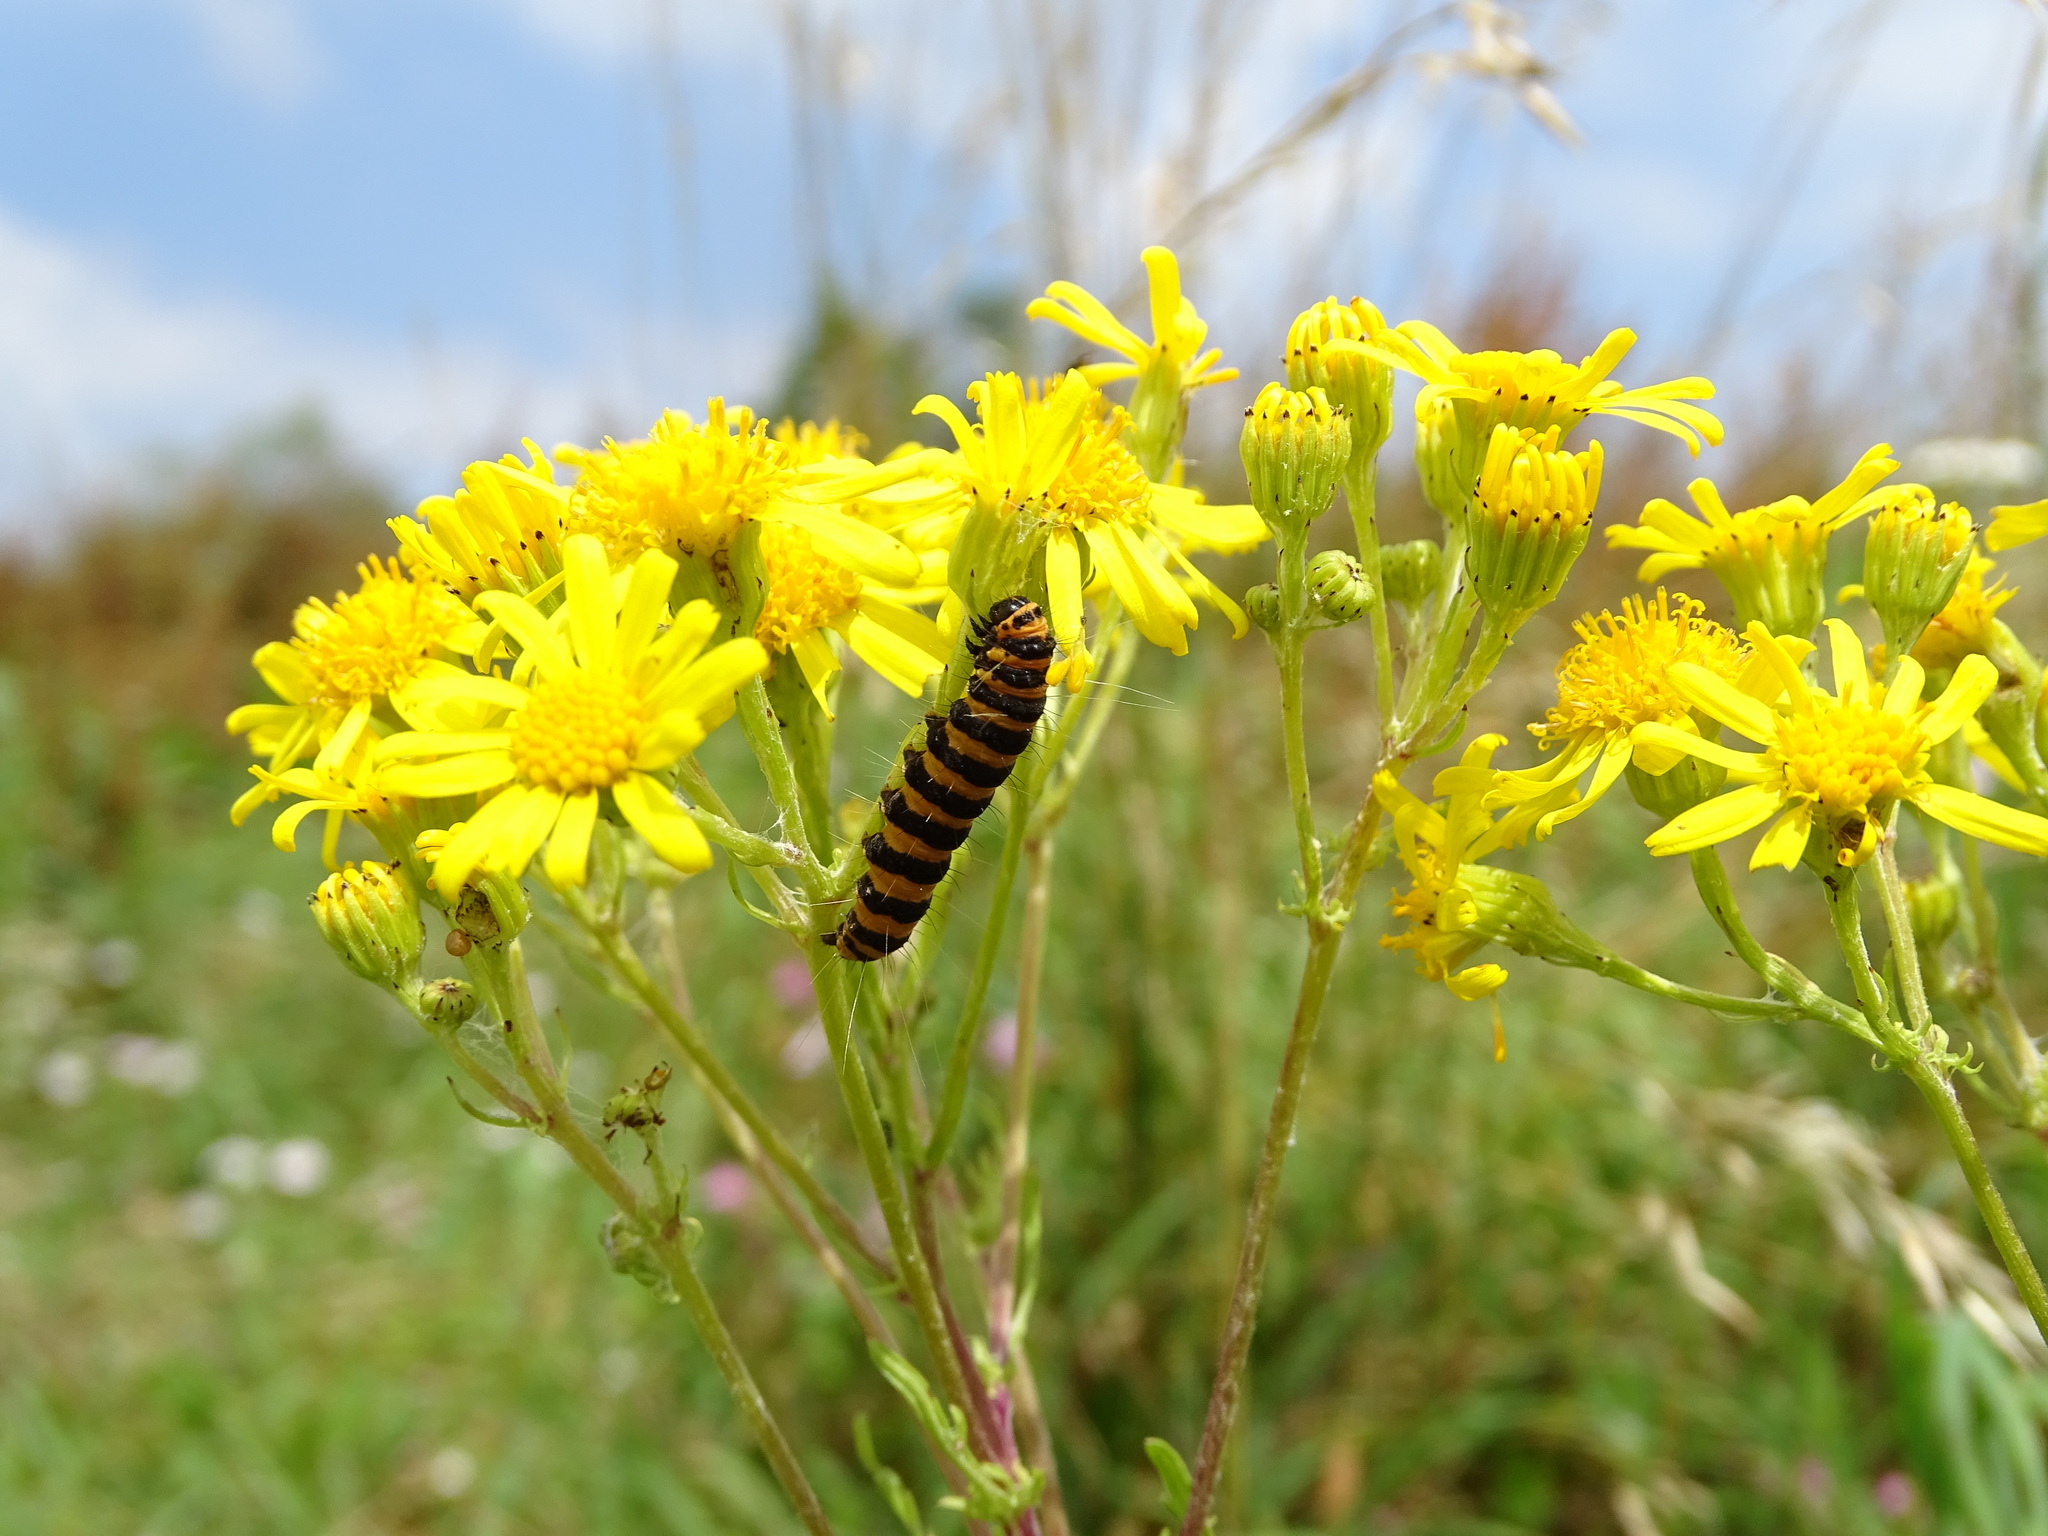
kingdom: Animalia
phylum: Arthropoda
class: Insecta
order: Lepidoptera
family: Erebidae
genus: Tyria
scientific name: Tyria jacobaeae
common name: Cinnabar
